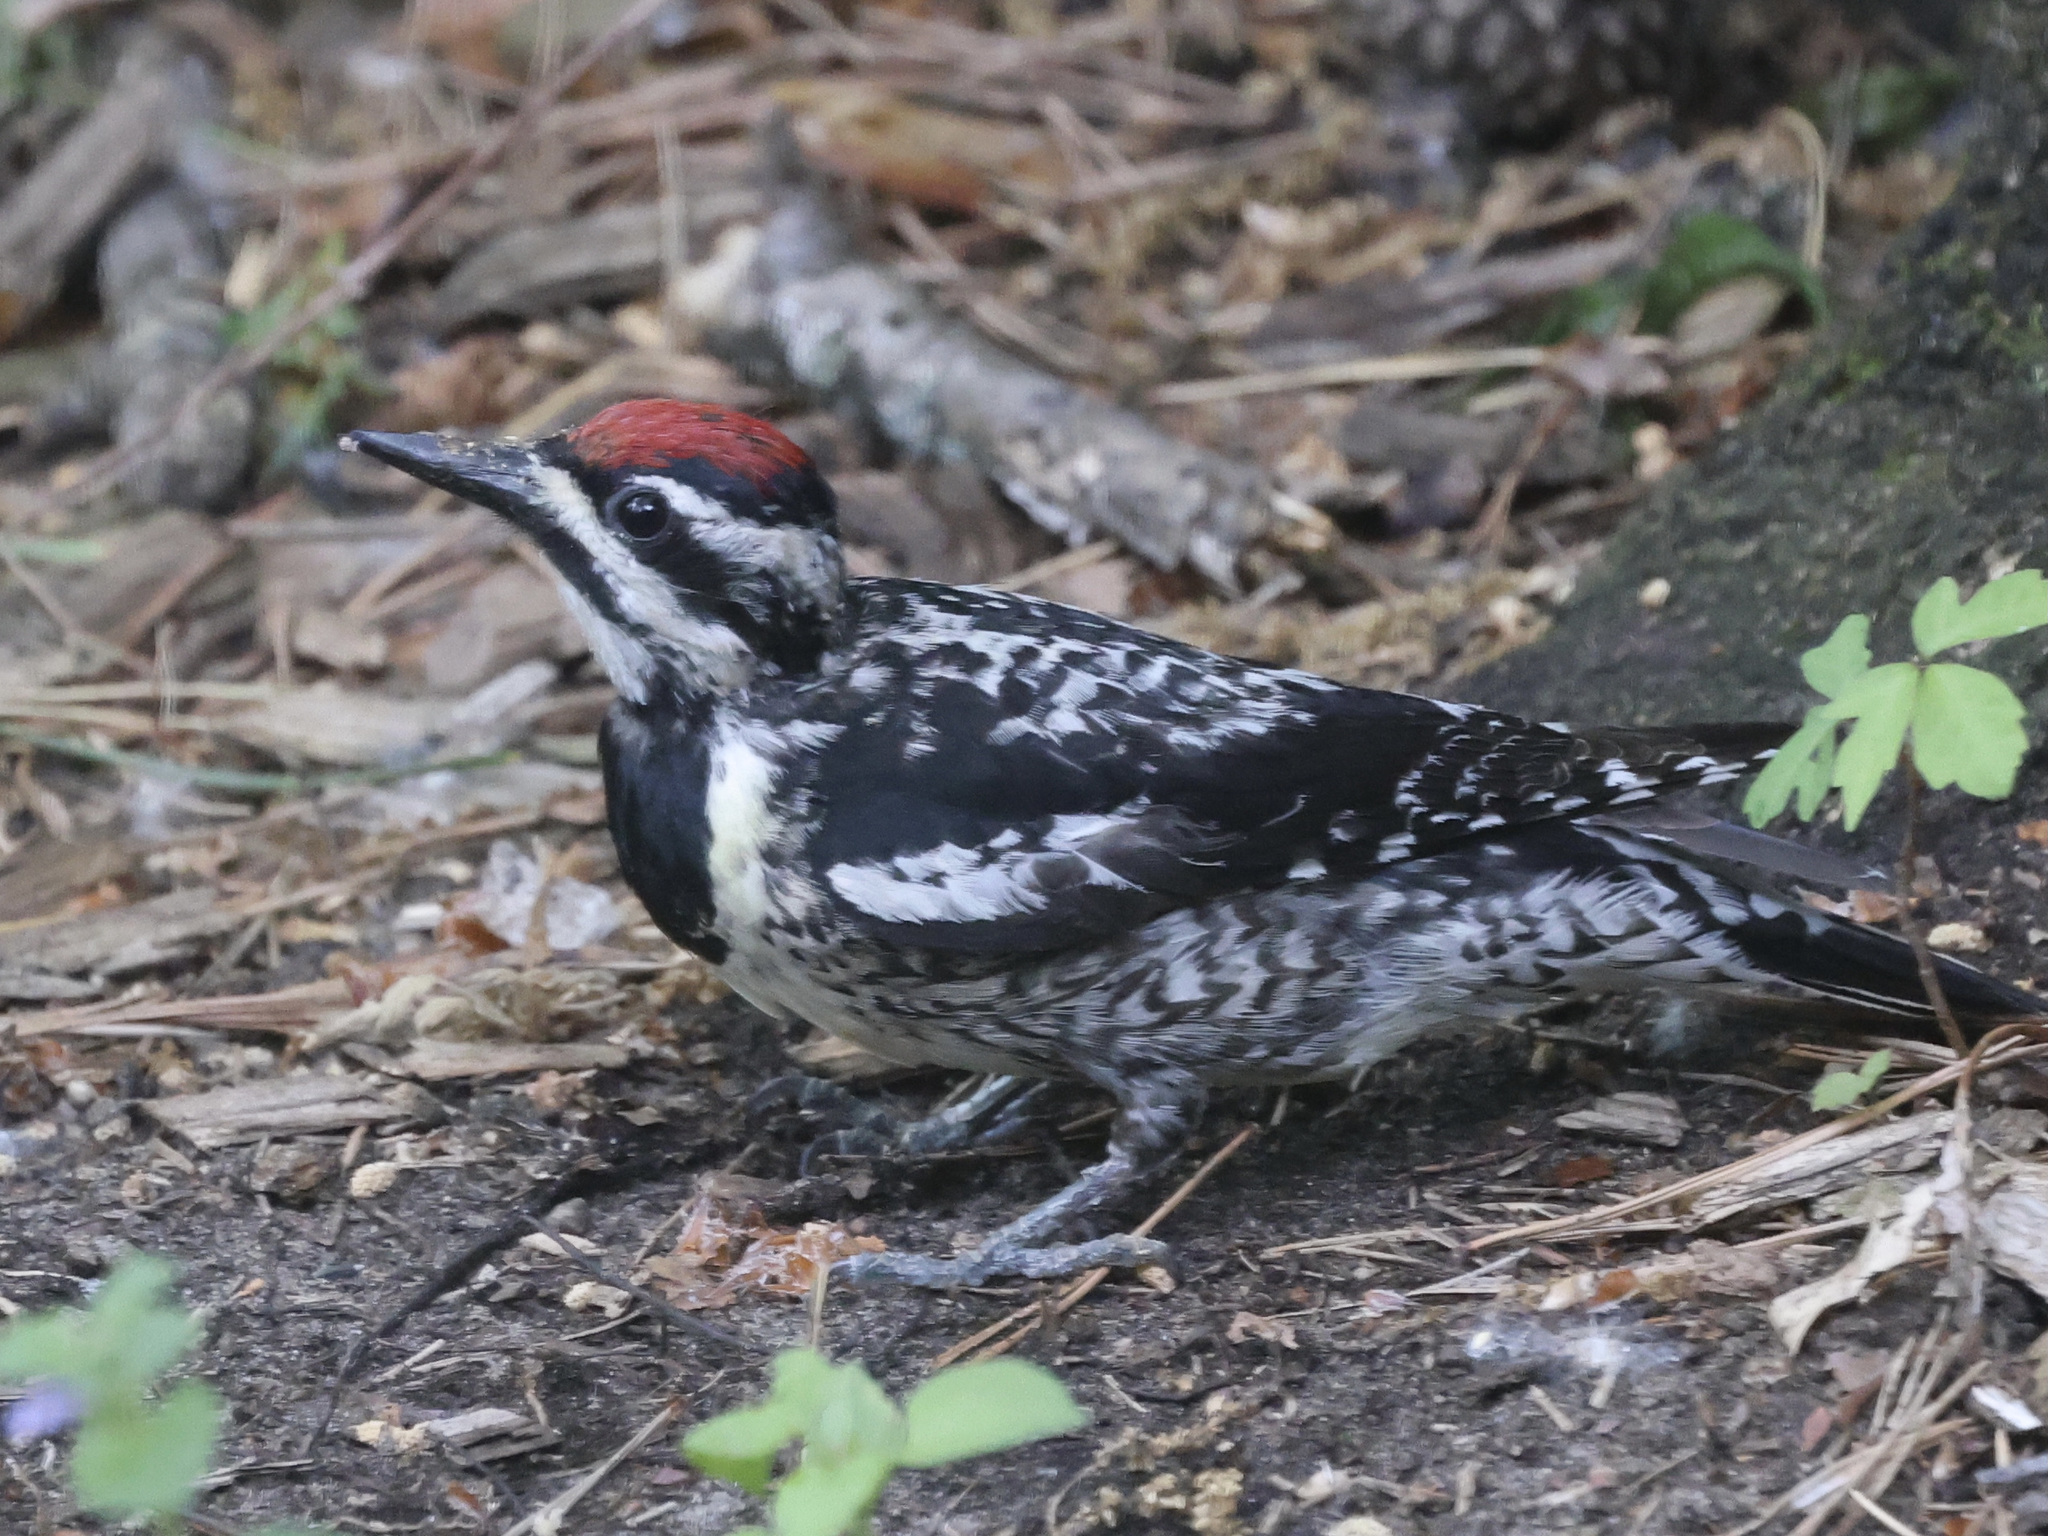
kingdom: Animalia
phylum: Chordata
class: Aves
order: Piciformes
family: Picidae
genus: Sphyrapicus
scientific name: Sphyrapicus varius
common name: Yellow-bellied sapsucker
